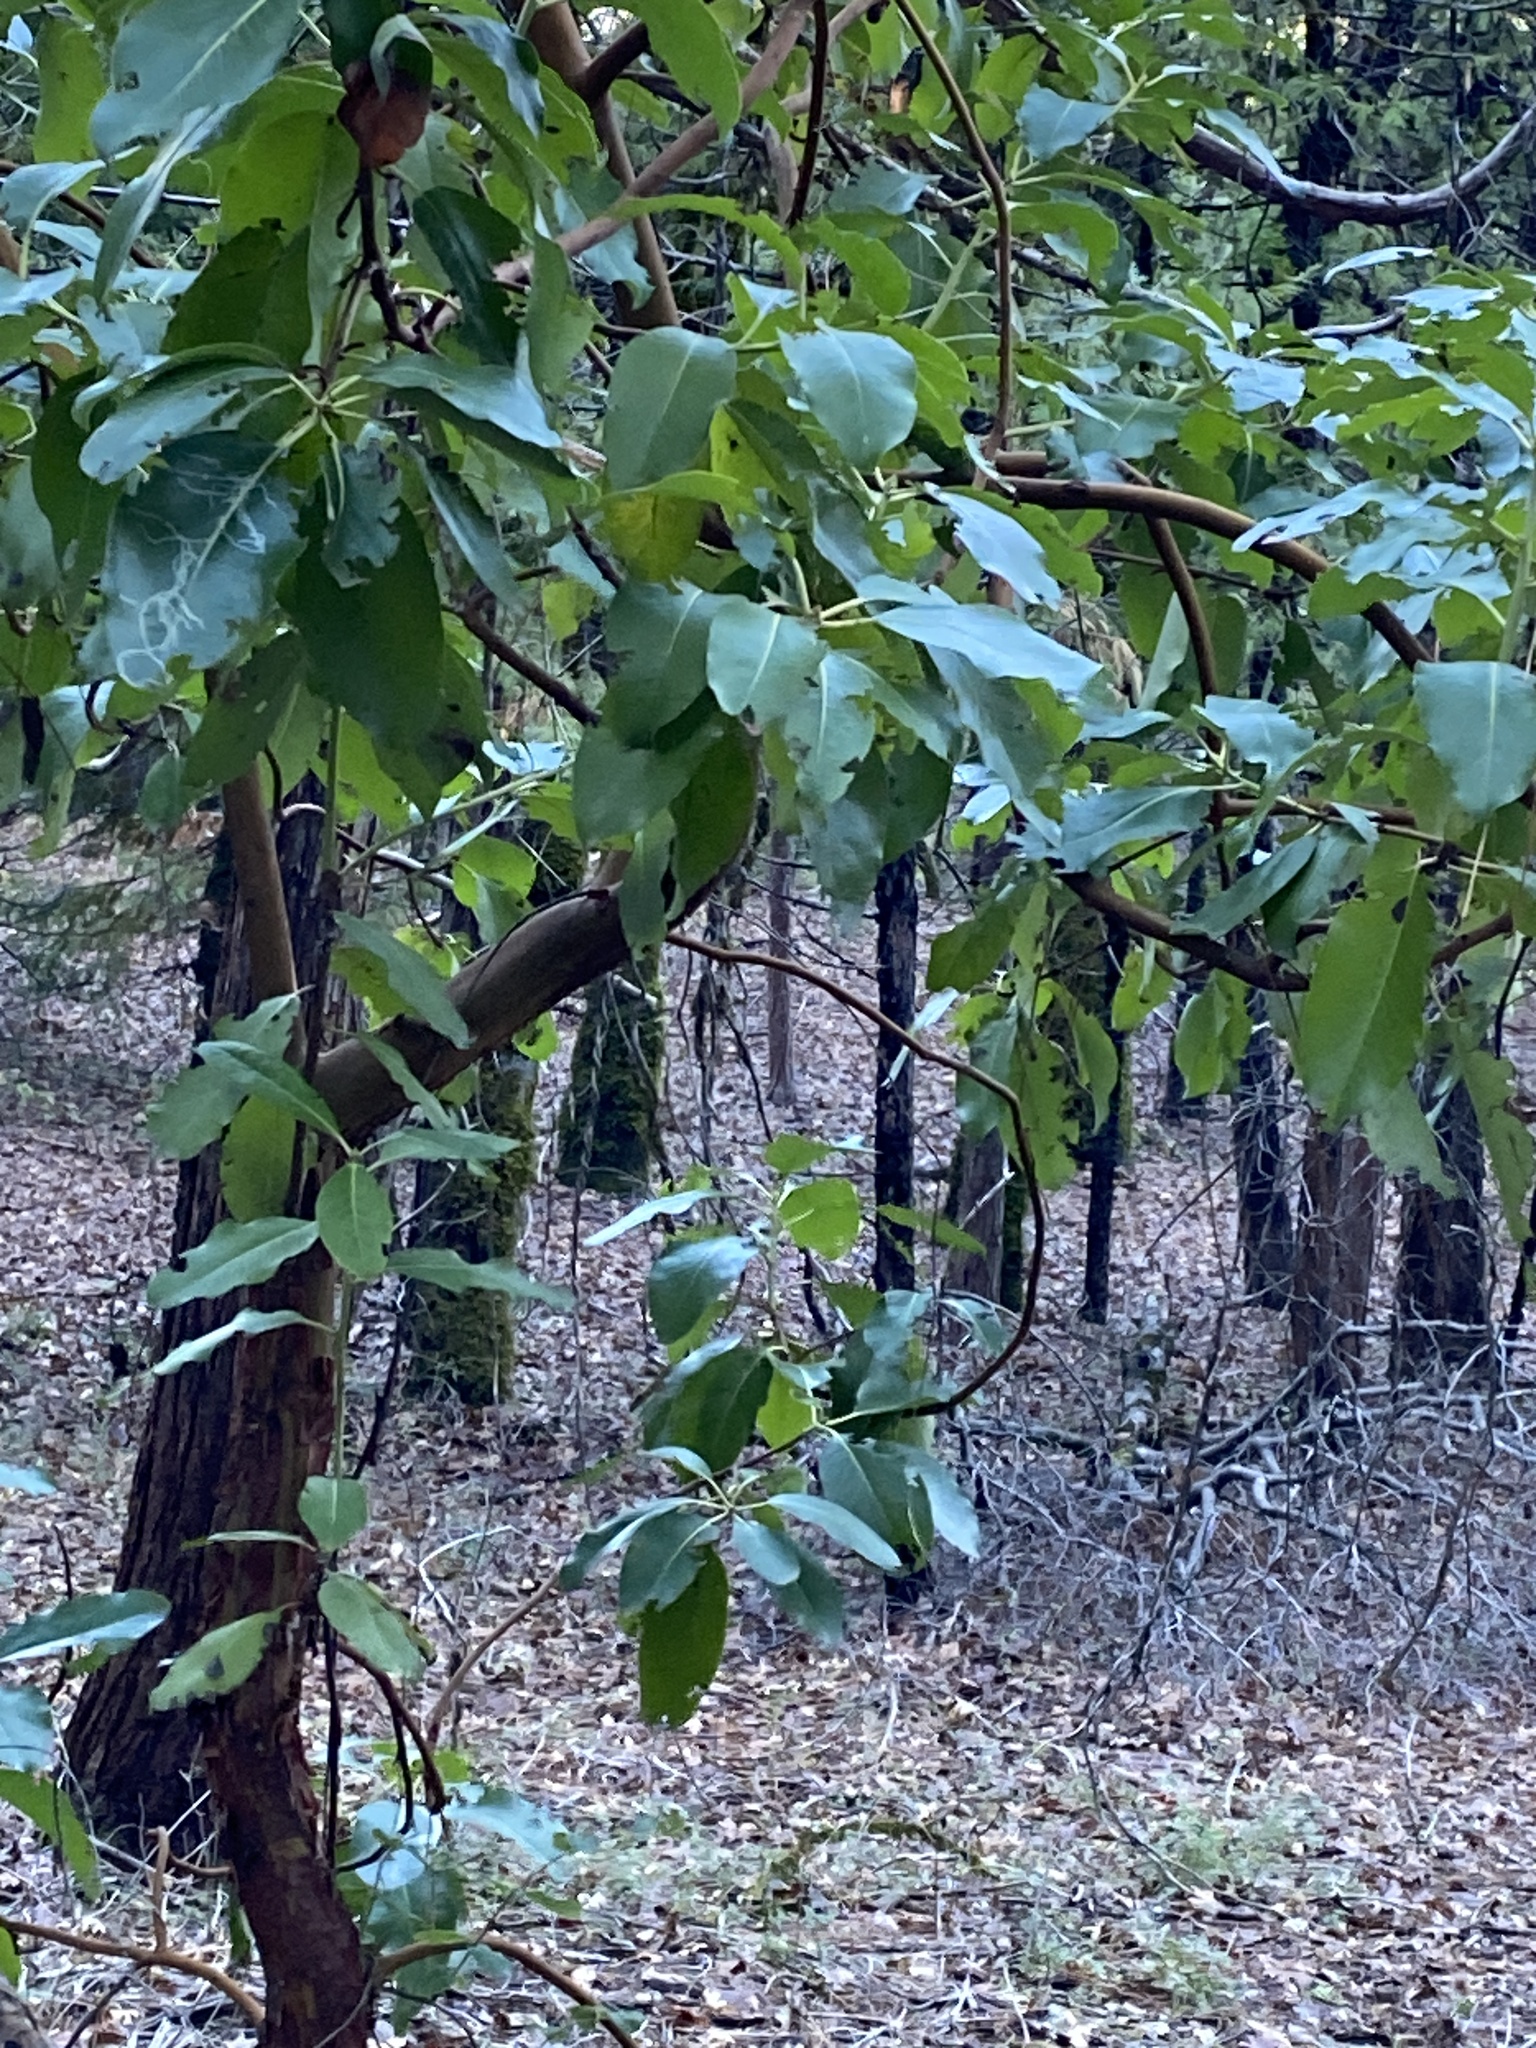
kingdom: Plantae
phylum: Tracheophyta
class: Magnoliopsida
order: Ericales
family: Ericaceae
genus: Arbutus
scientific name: Arbutus menziesii
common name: Pacific madrone
